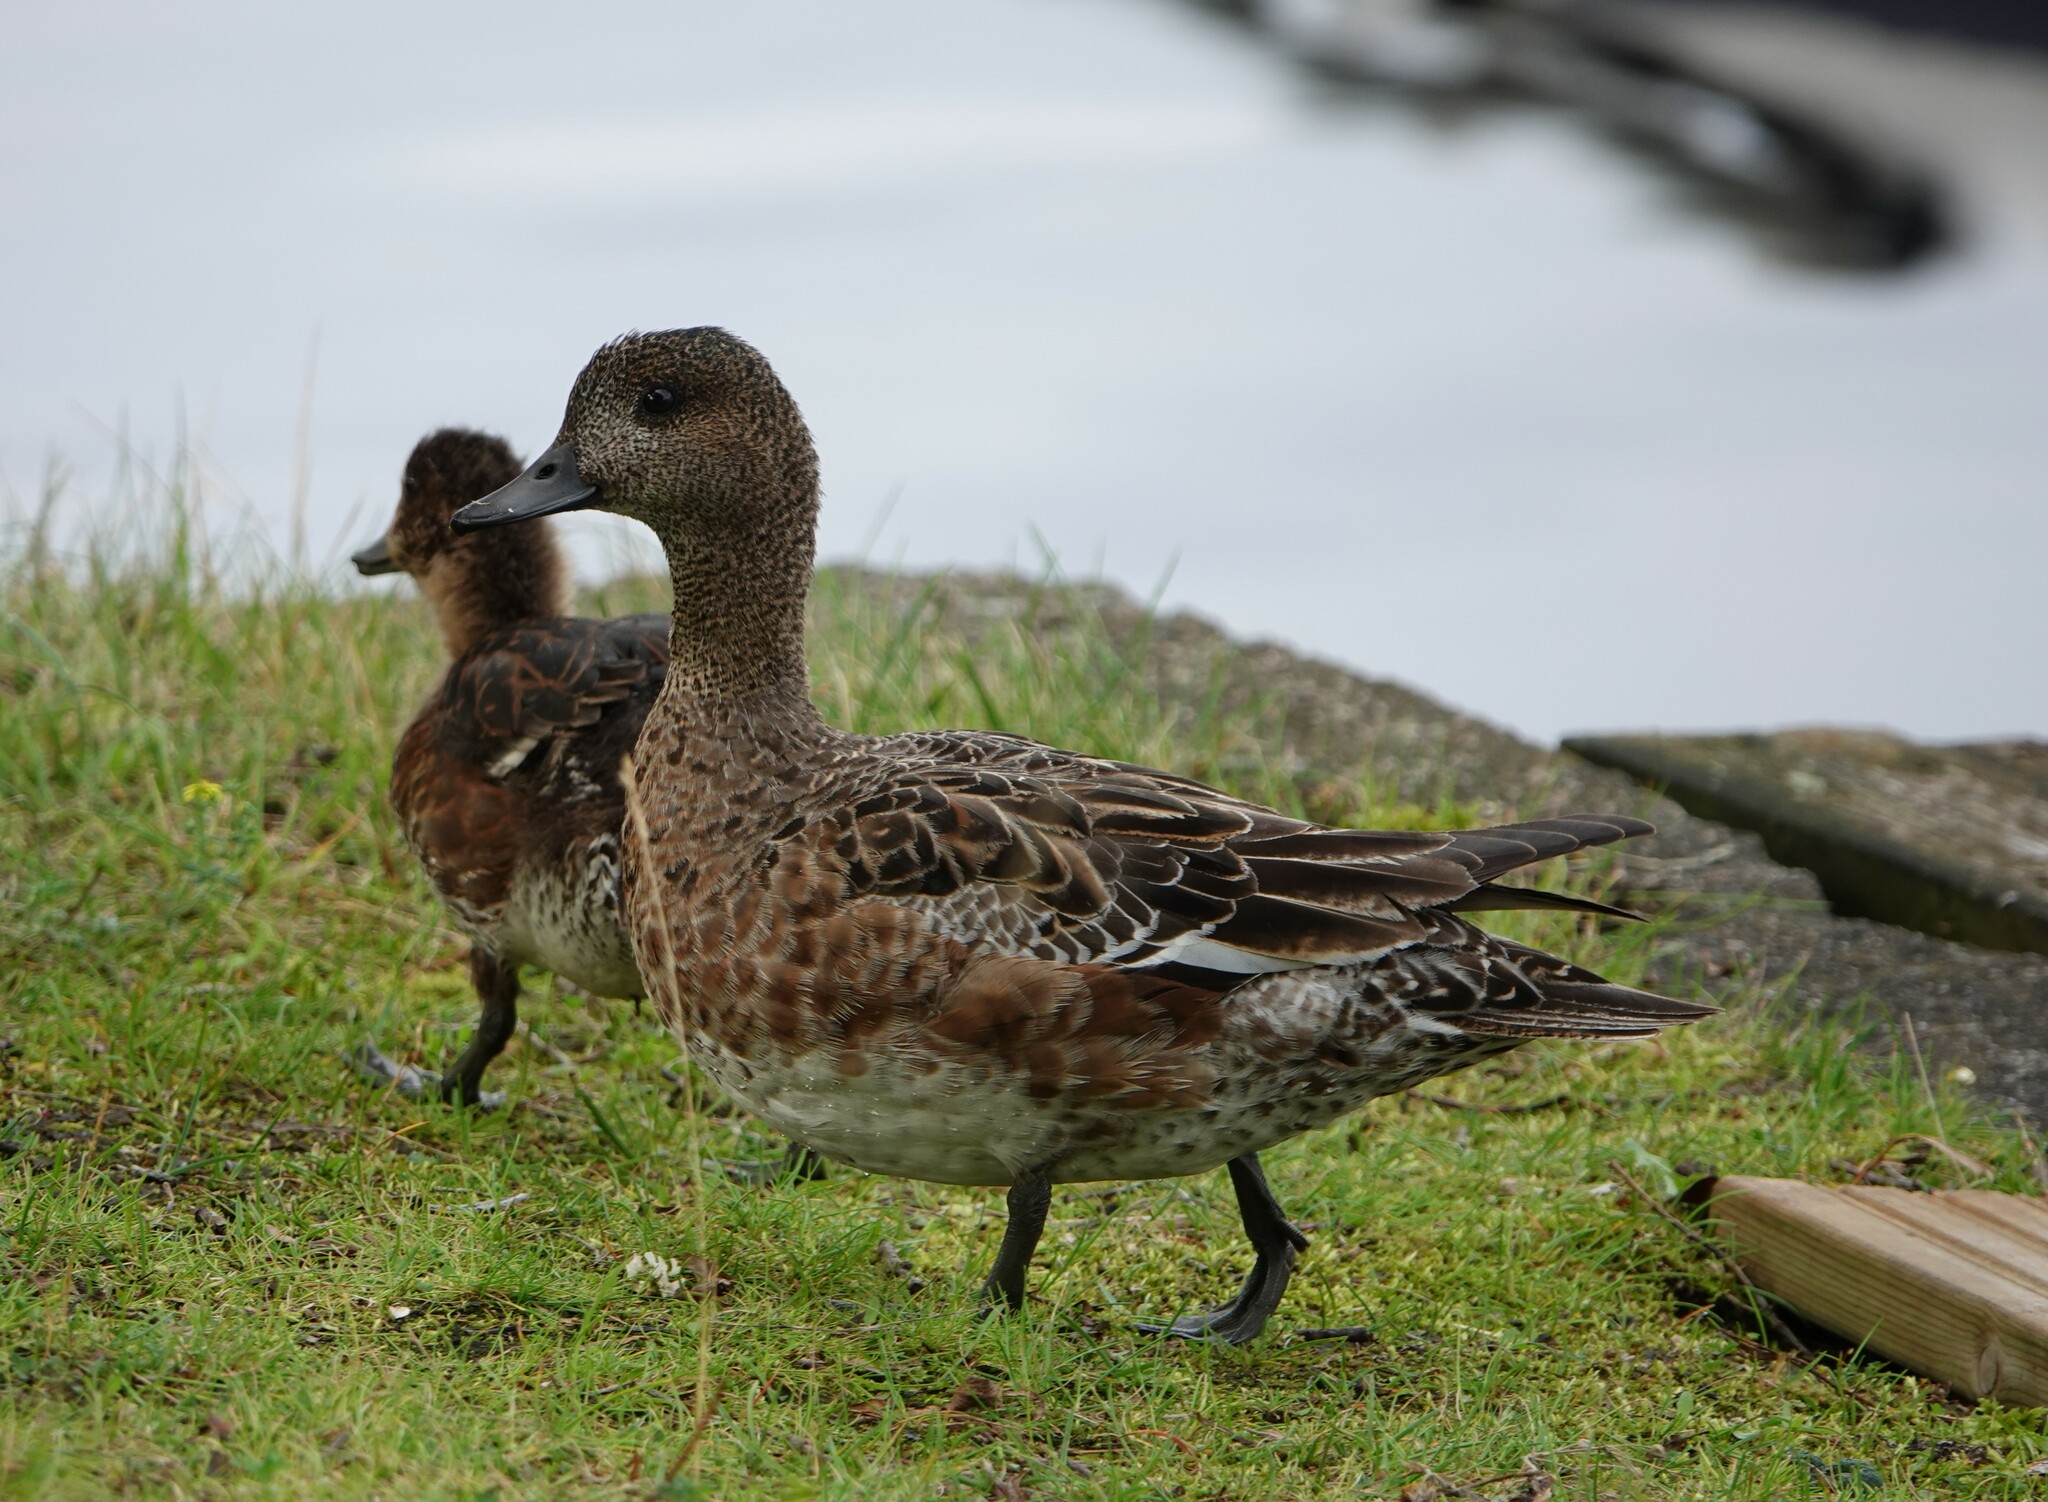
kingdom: Animalia
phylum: Chordata
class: Aves
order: Anseriformes
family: Anatidae
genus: Mareca
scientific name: Mareca penelope
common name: Eurasian wigeon
